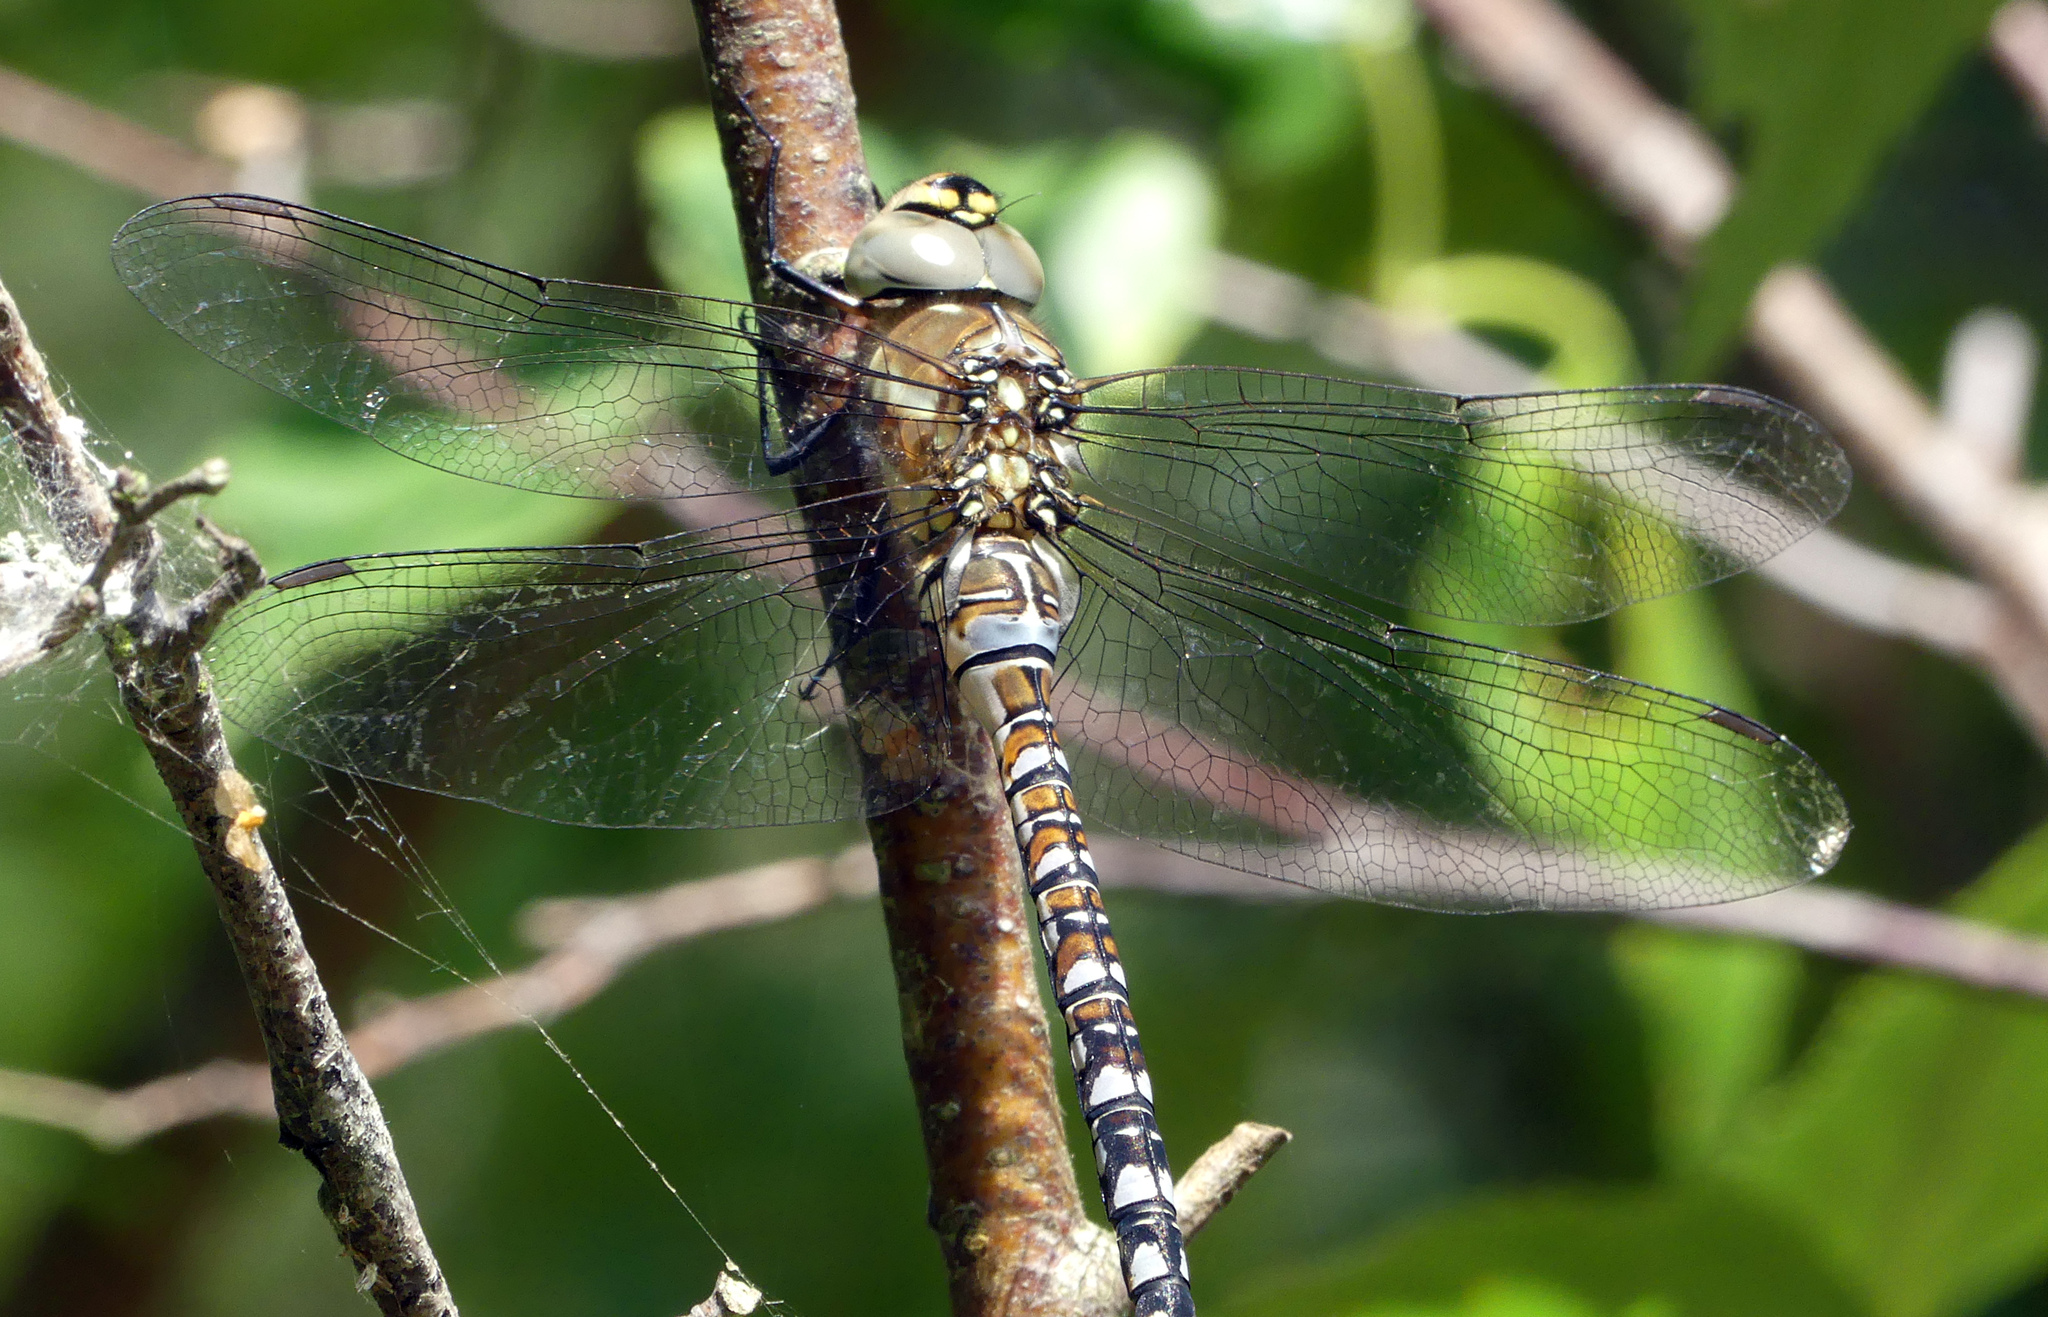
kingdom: Animalia
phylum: Arthropoda
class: Insecta
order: Odonata
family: Aeshnidae
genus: Aeshna
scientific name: Aeshna mixta
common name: Migrant hawker
